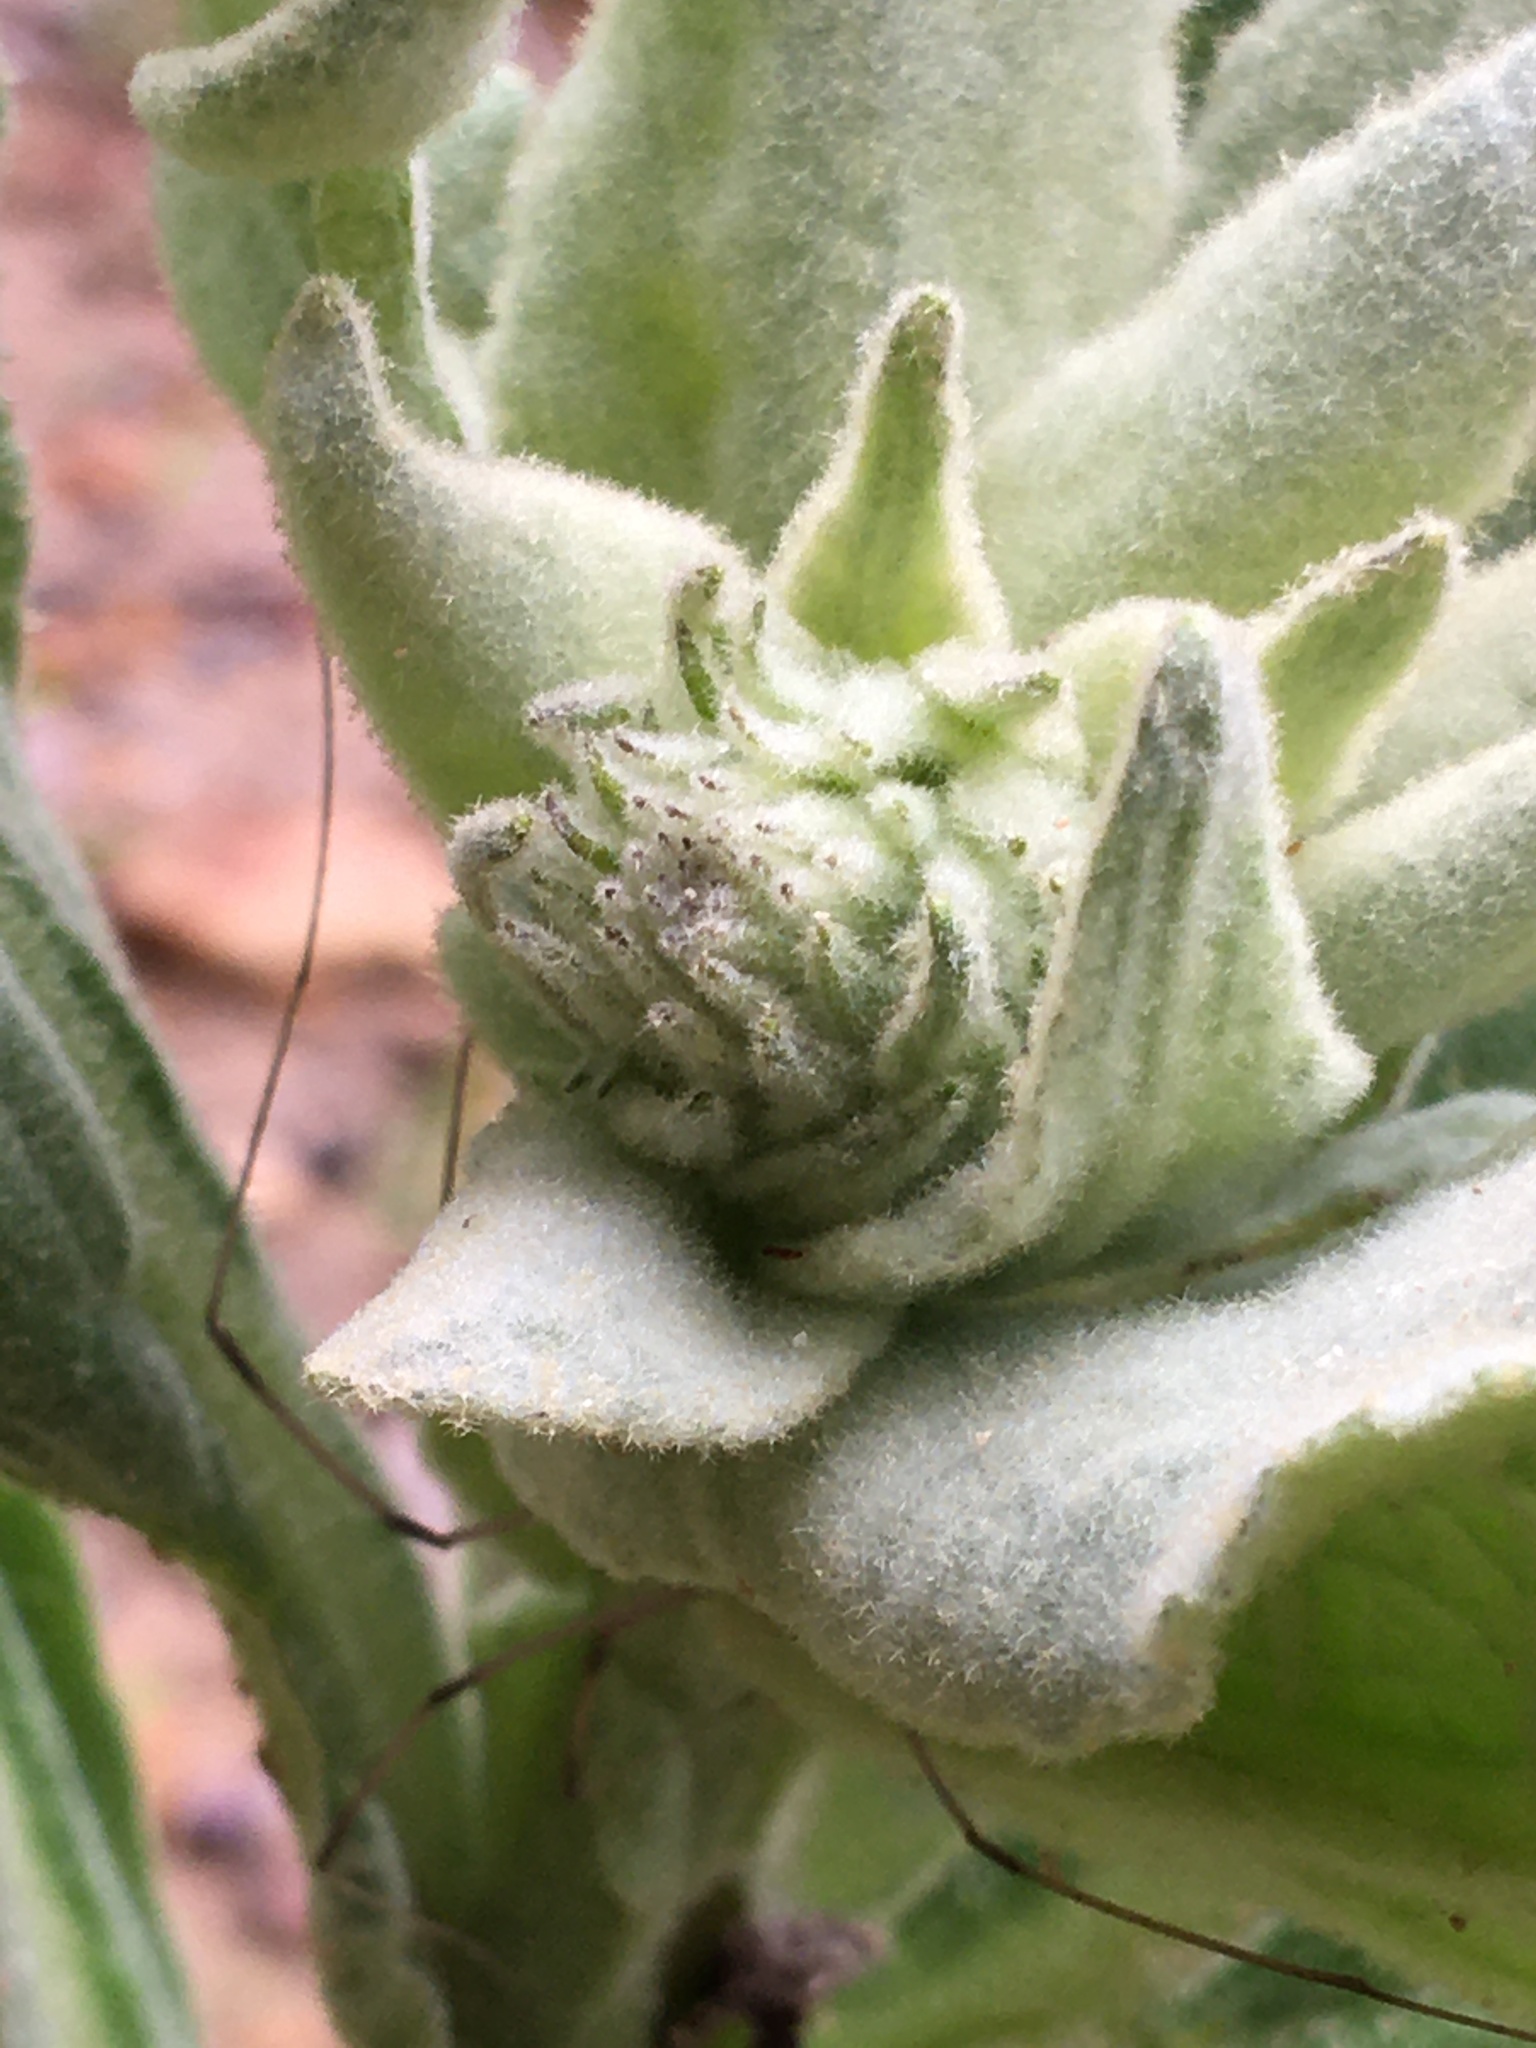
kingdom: Plantae
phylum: Tracheophyta
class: Magnoliopsida
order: Lamiales
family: Scrophulariaceae
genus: Verbascum
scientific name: Verbascum thapsus
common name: Common mullein
